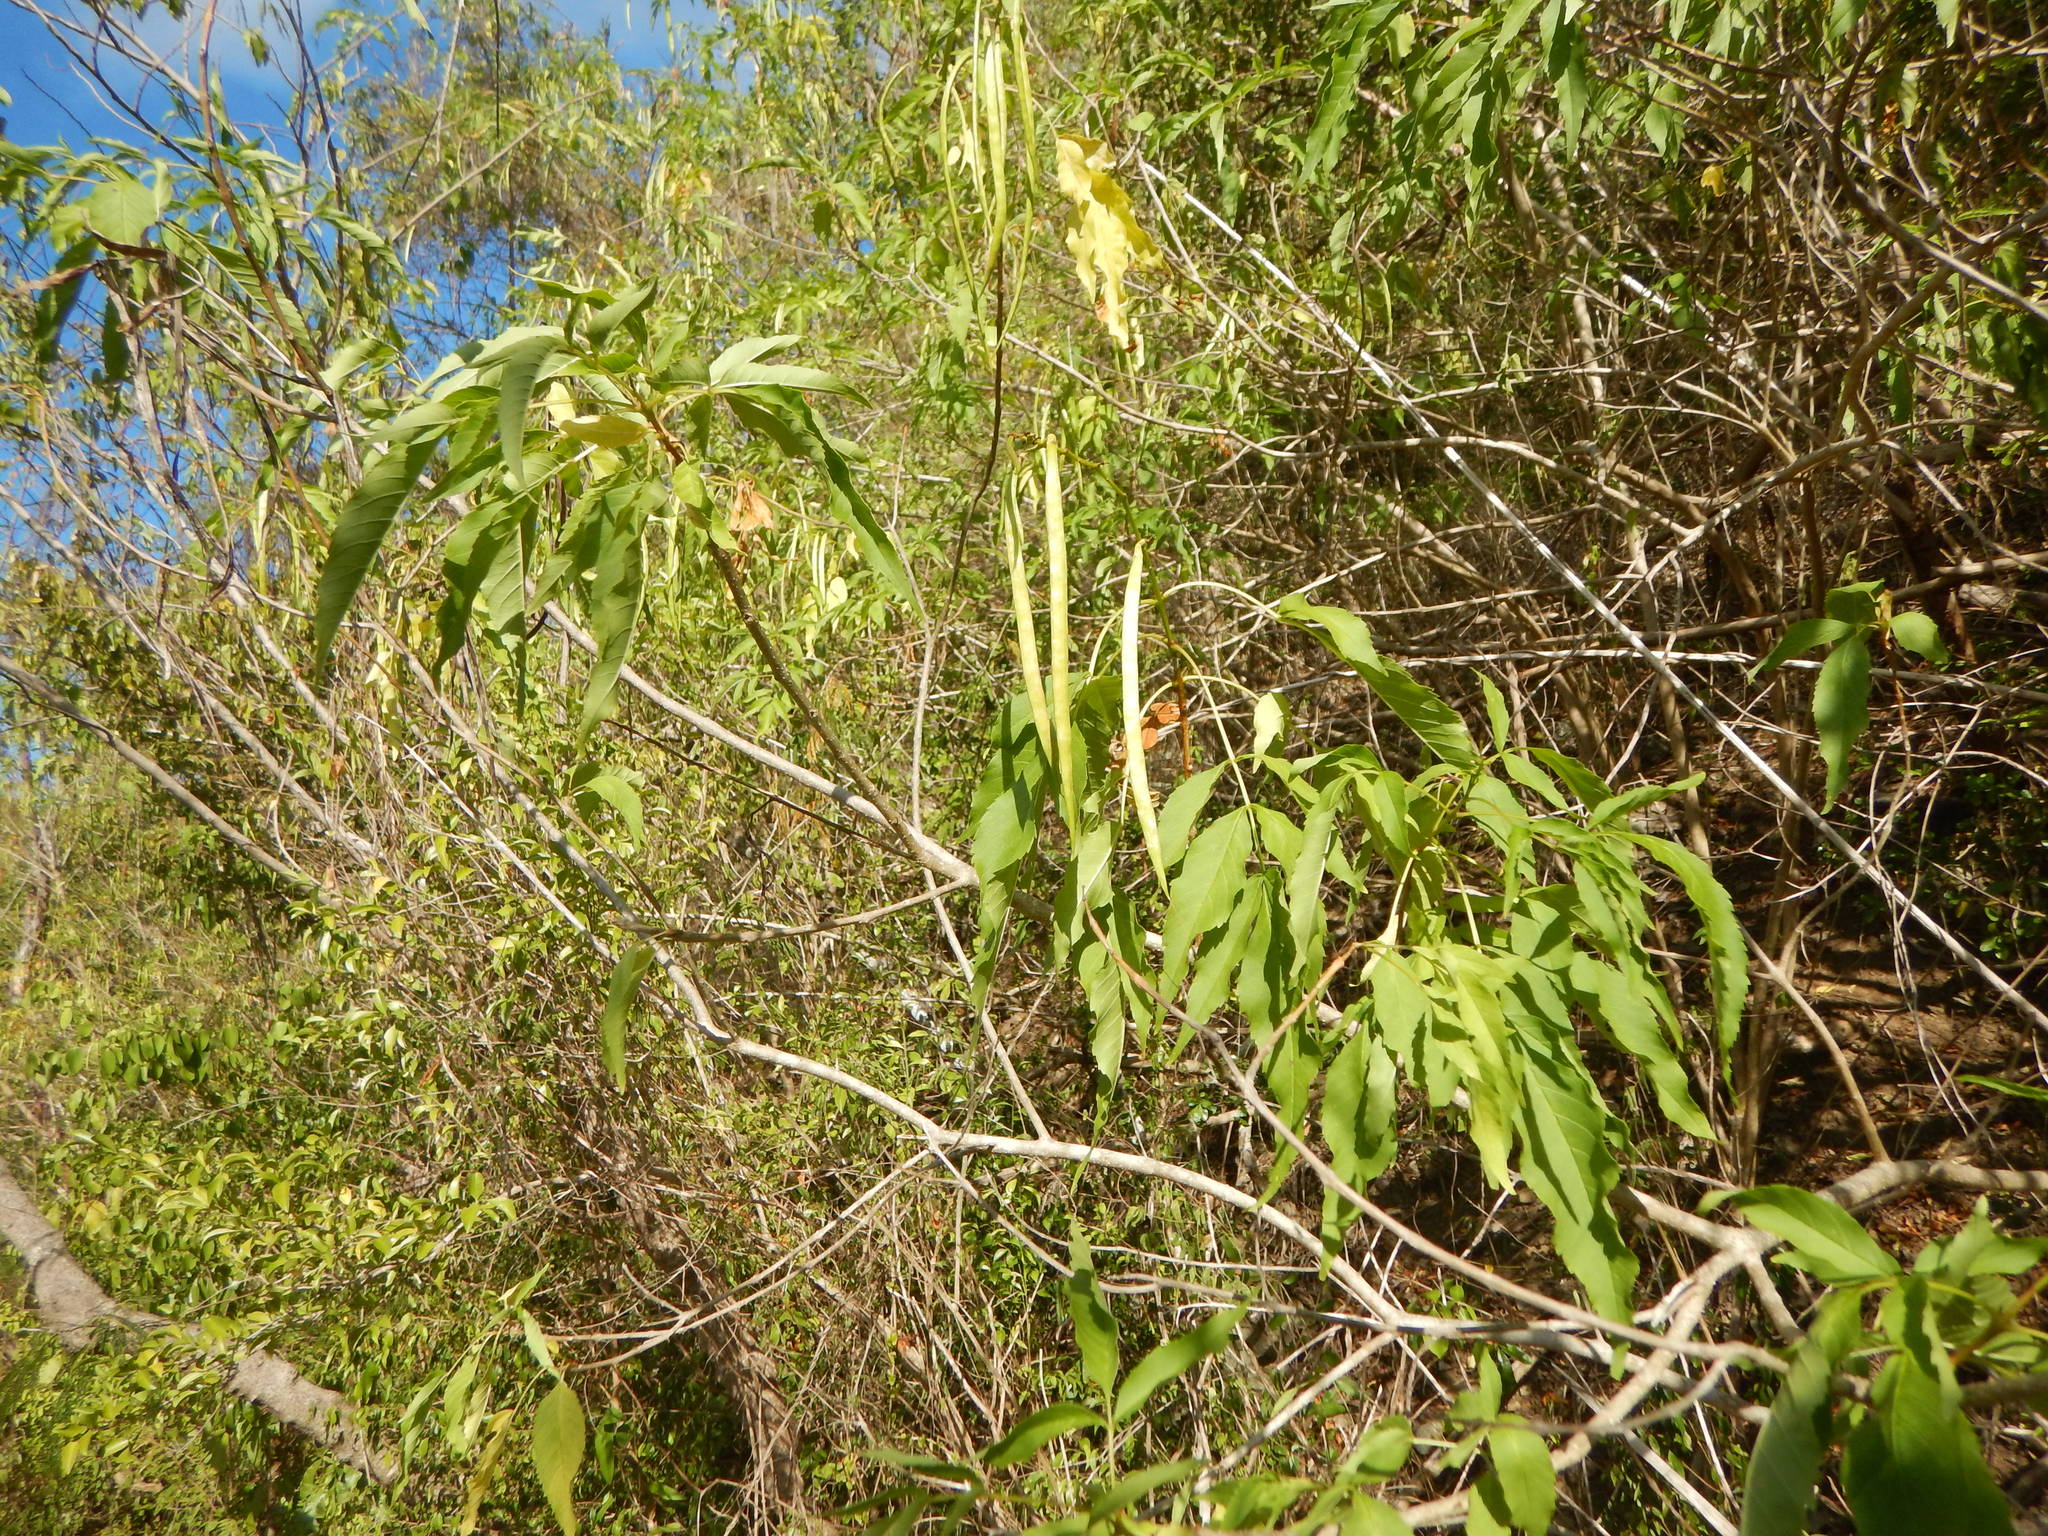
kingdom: Plantae
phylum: Tracheophyta
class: Magnoliopsida
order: Lamiales
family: Bignoniaceae
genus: Tecoma
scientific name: Tecoma stans
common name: Yellow trumpetbush
